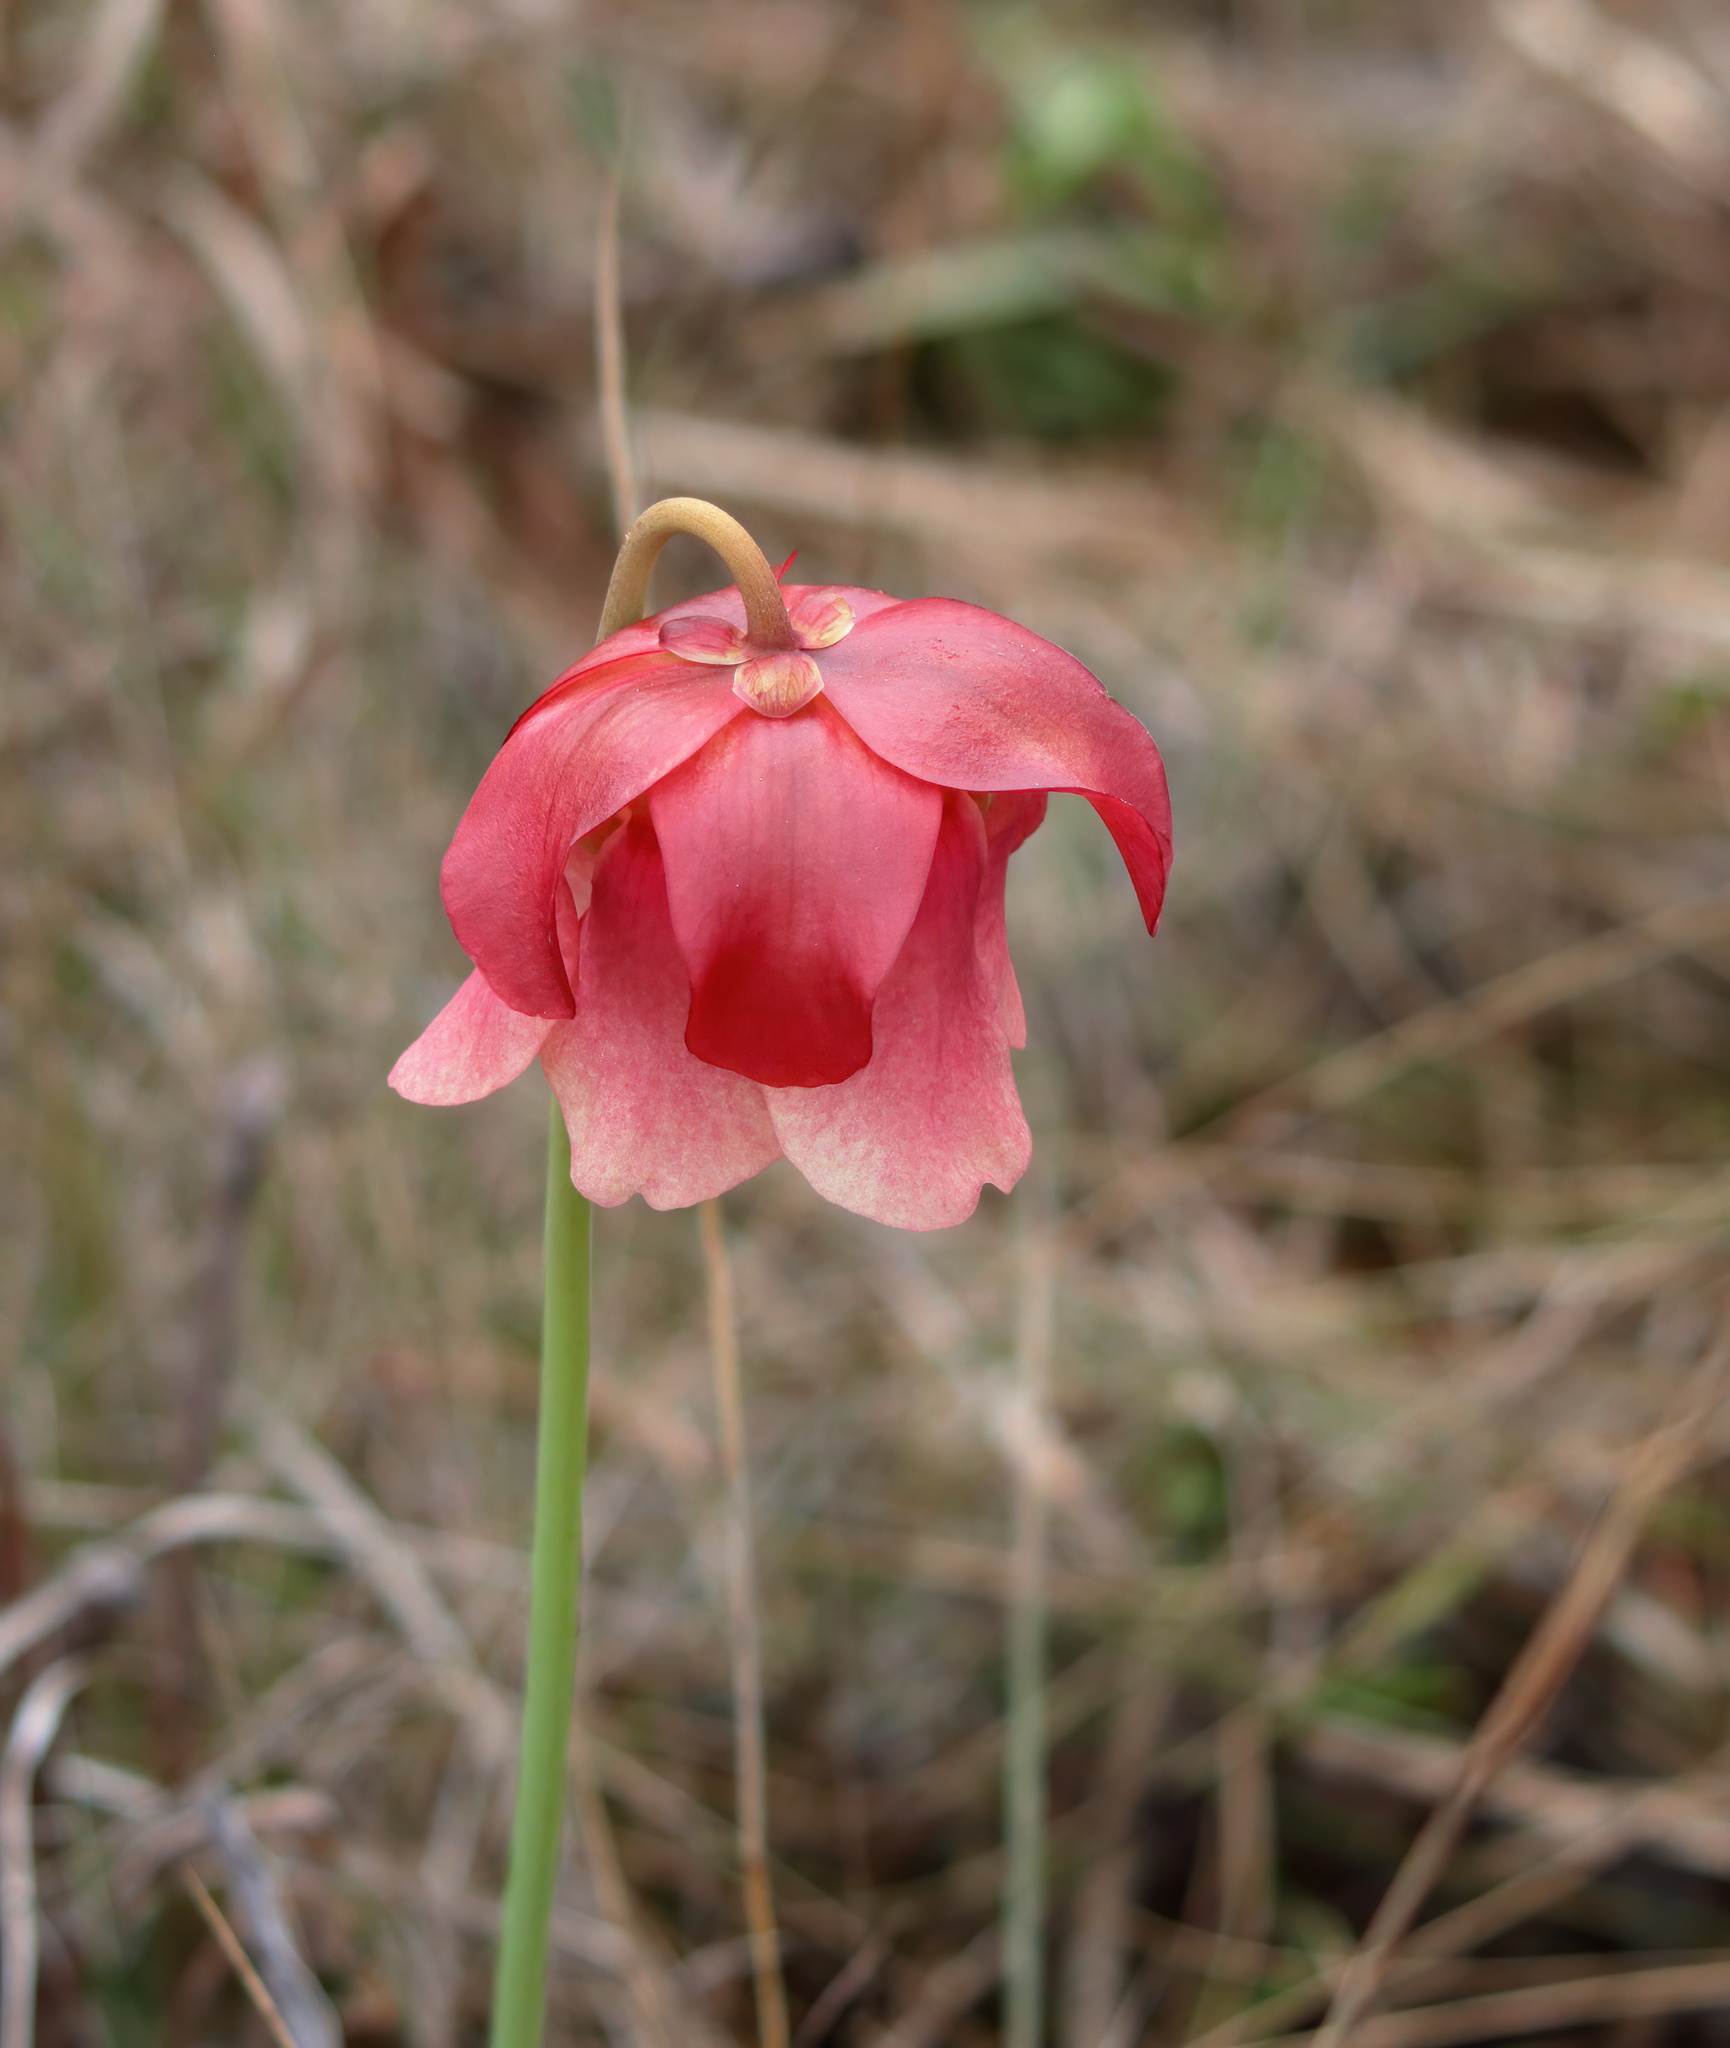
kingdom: Plantae
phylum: Tracheophyta
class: Magnoliopsida
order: Ericales
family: Sarraceniaceae
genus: Sarracenia
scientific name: Sarracenia areolata
